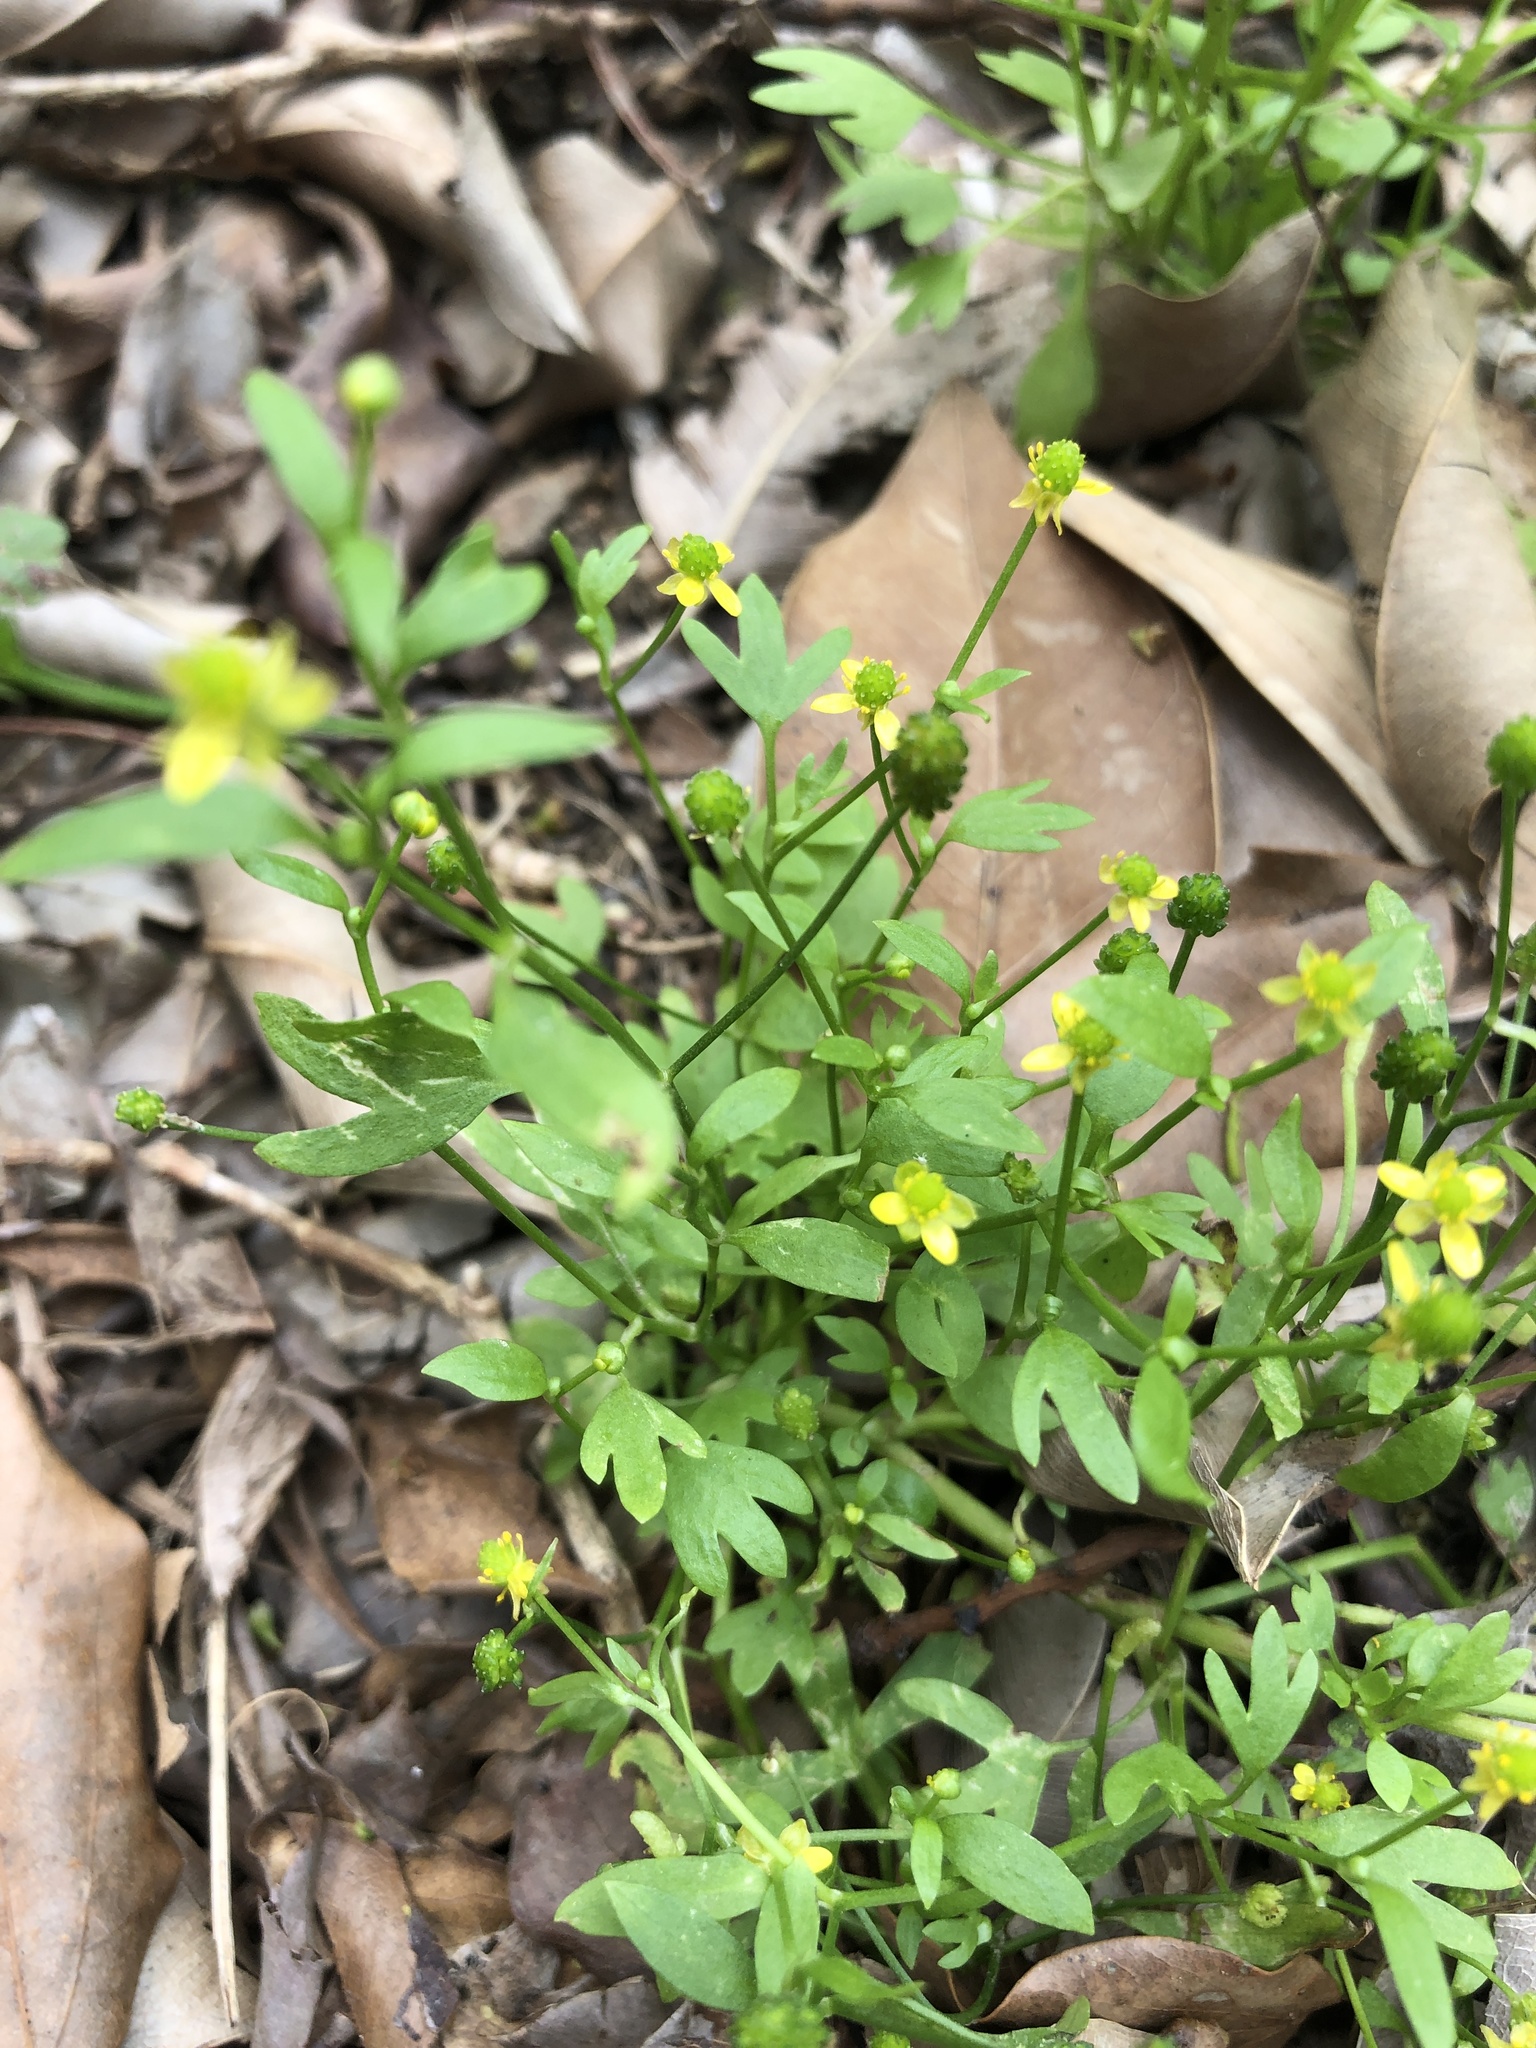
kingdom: Plantae
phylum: Tracheophyta
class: Magnoliopsida
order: Ranunculales
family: Ranunculaceae
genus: Ranunculus
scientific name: Ranunculus cantoniensis
